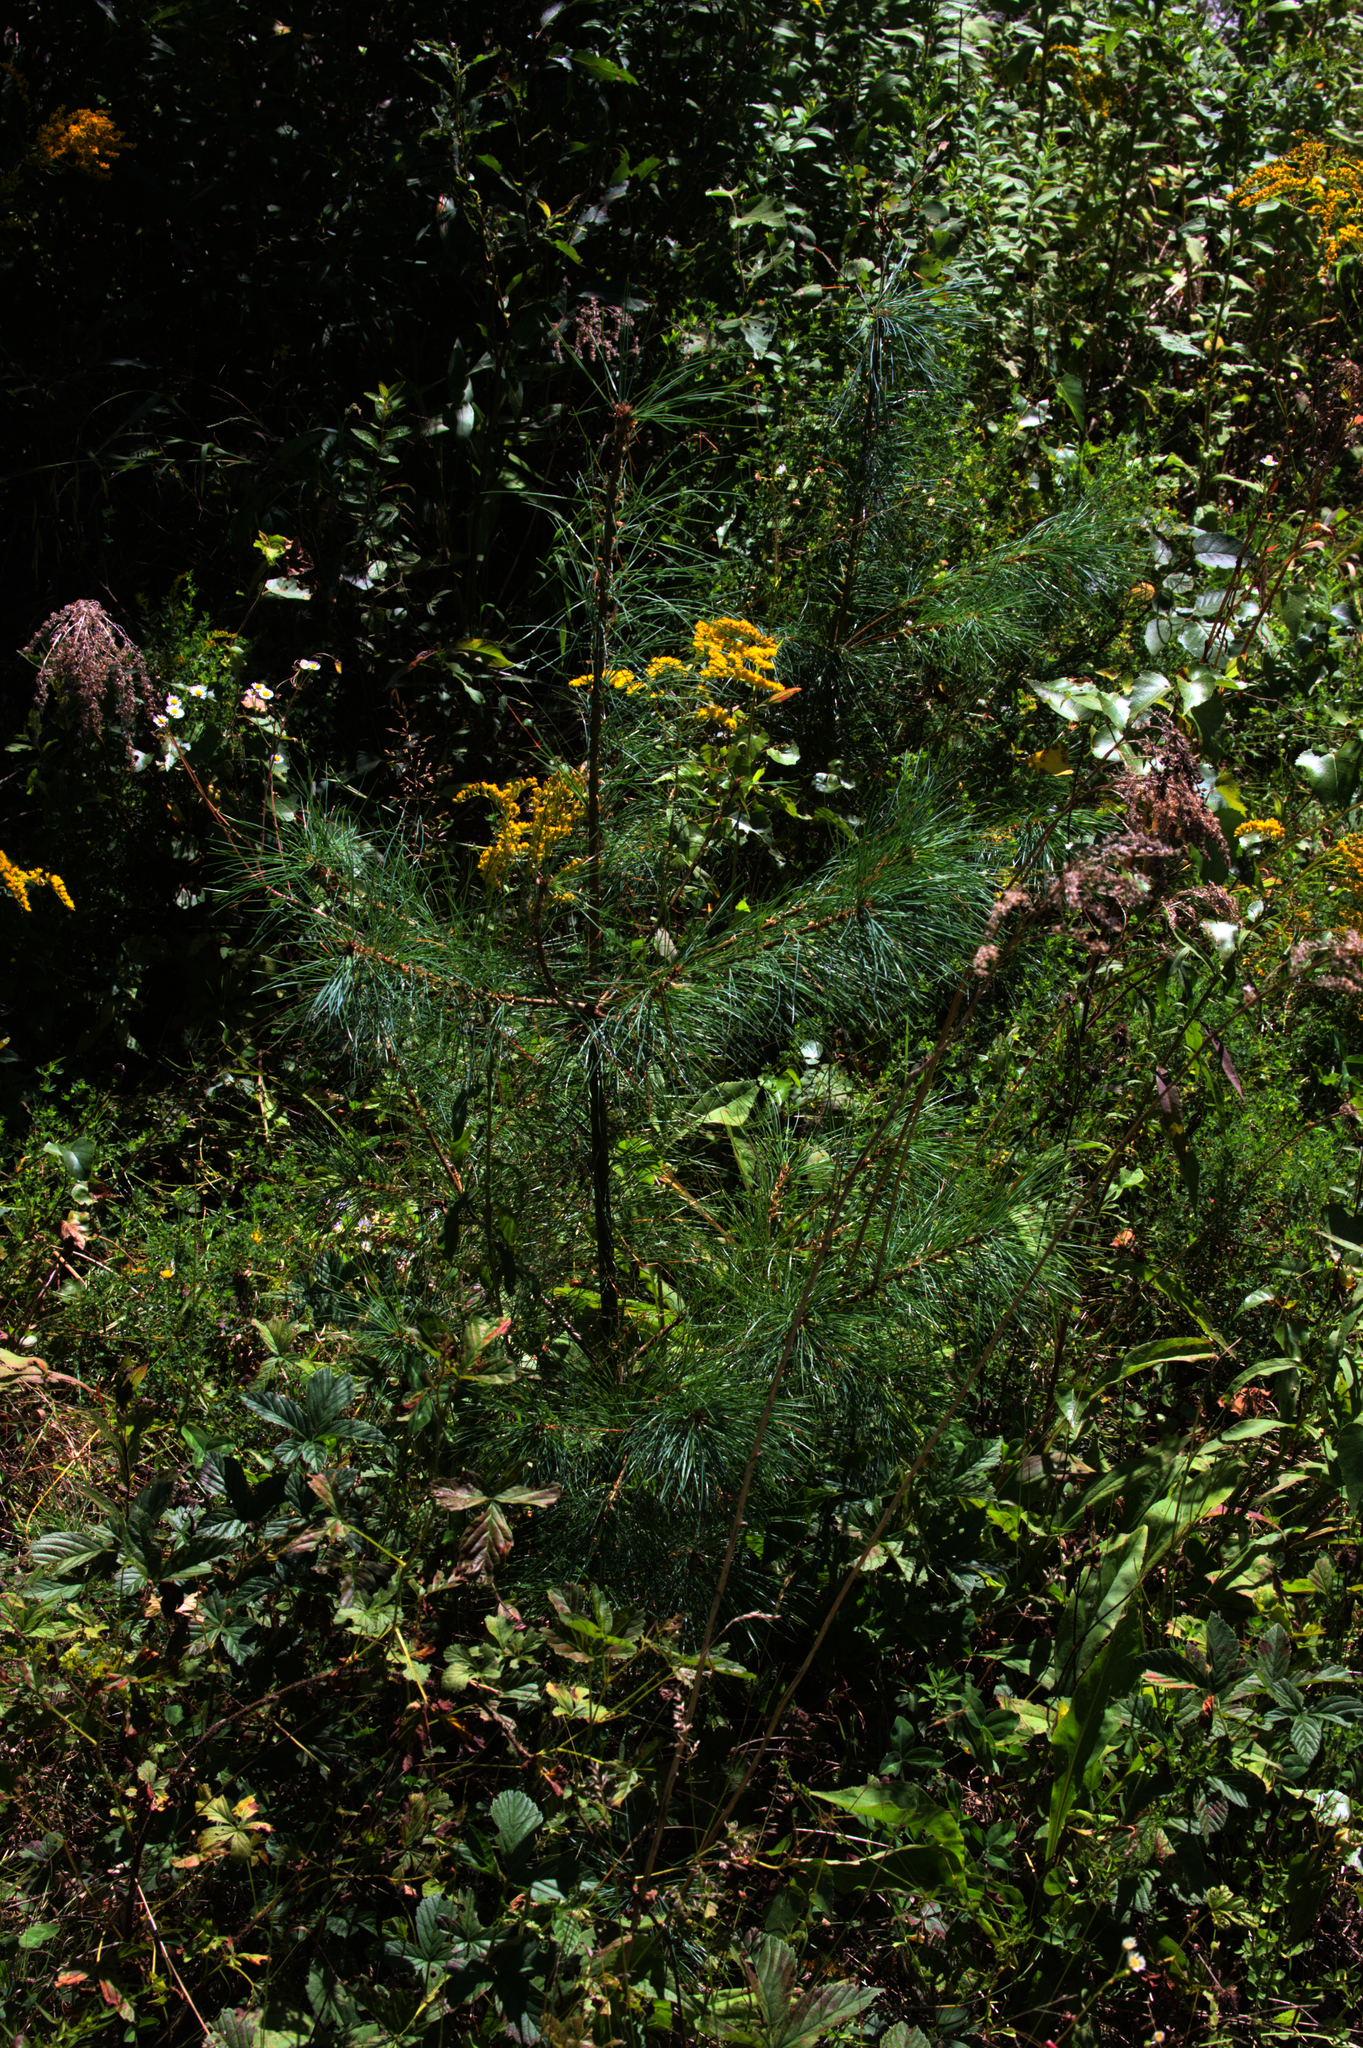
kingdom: Plantae
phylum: Tracheophyta
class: Pinopsida
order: Pinales
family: Pinaceae
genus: Pinus
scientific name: Pinus strobus
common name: Weymouth pine
